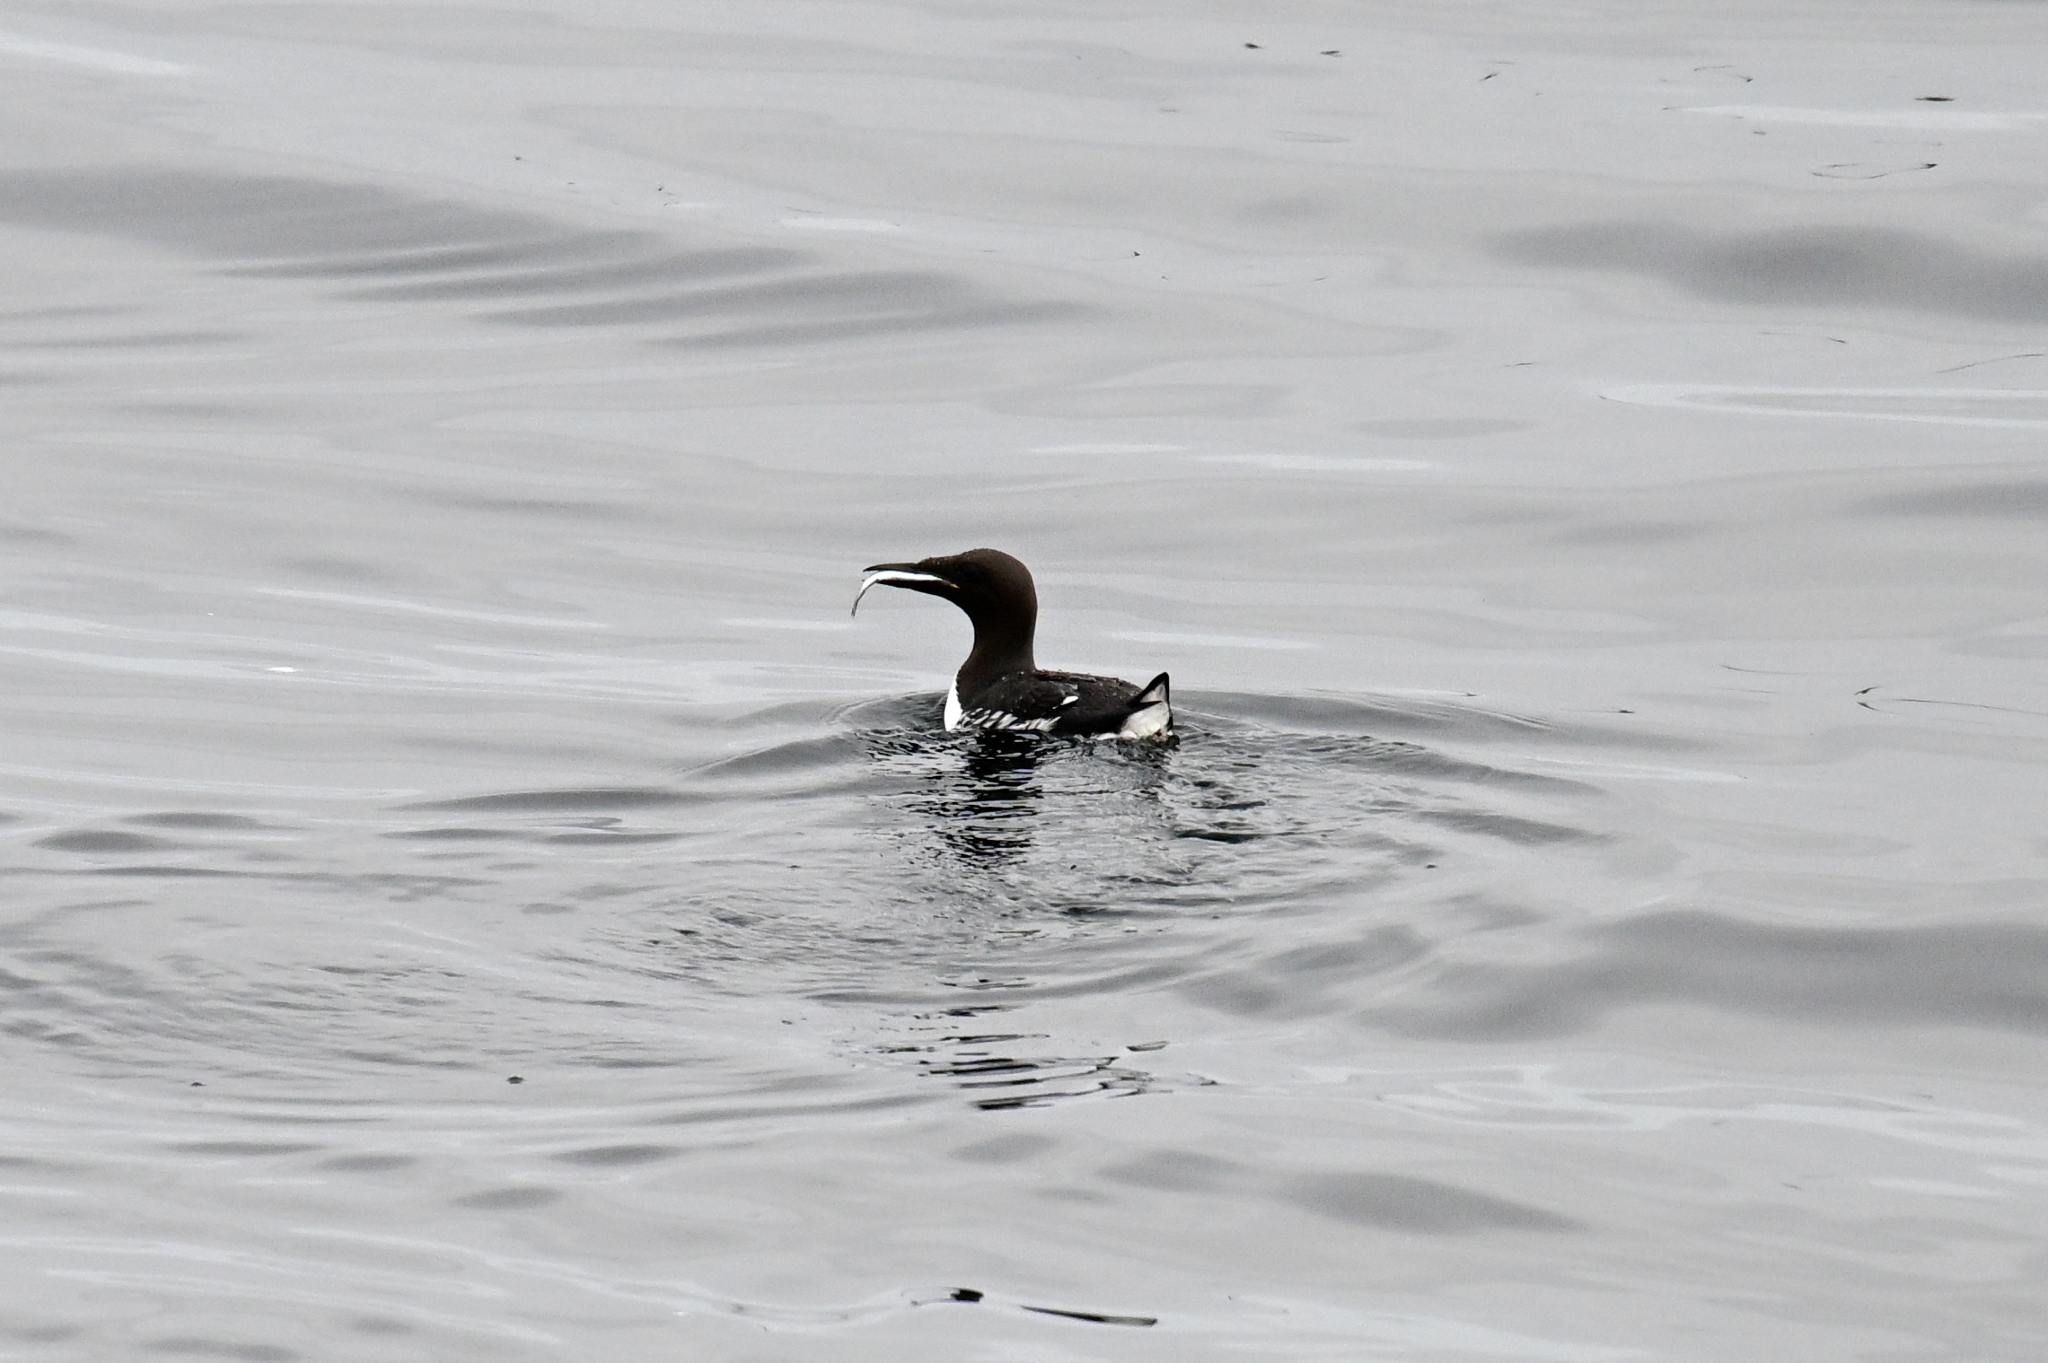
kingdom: Animalia
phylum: Chordata
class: Aves
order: Charadriiformes
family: Alcidae
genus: Uria
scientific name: Uria aalge
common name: Common murre
